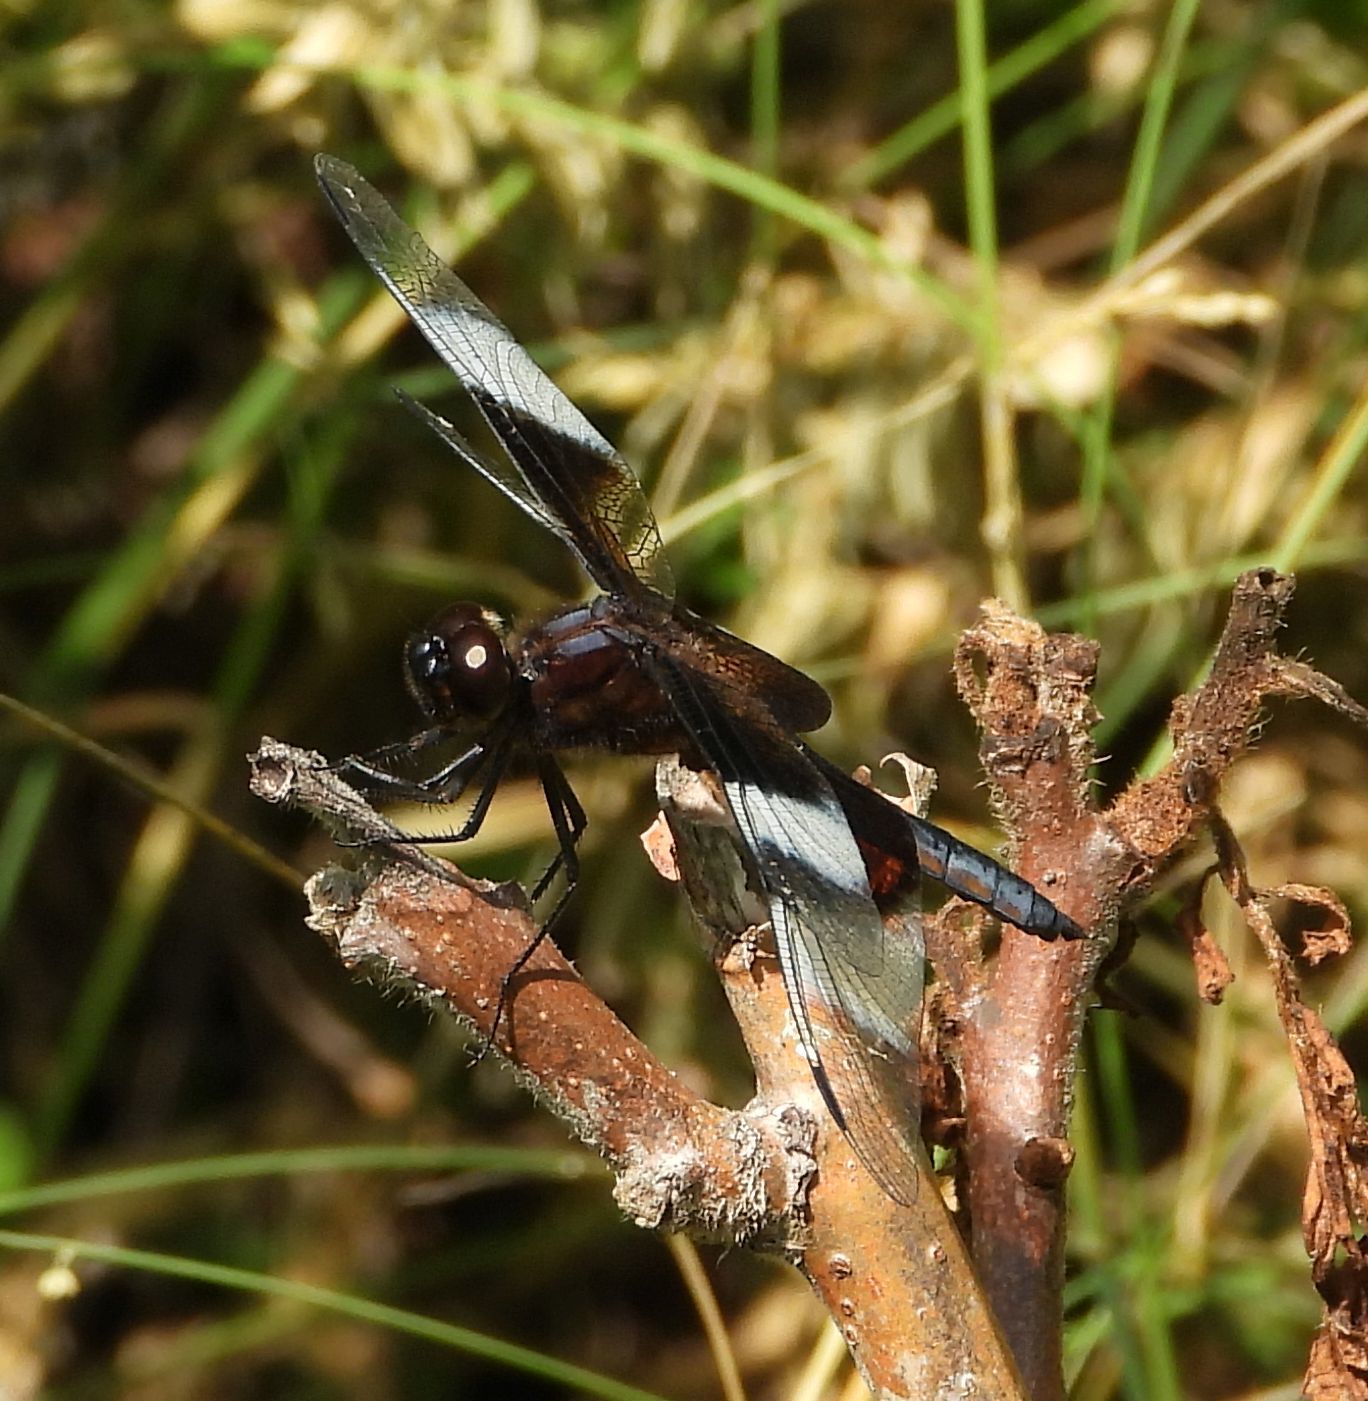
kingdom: Animalia
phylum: Arthropoda
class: Insecta
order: Odonata
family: Libellulidae
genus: Libellula
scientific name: Libellula luctuosa
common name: Widow skimmer
